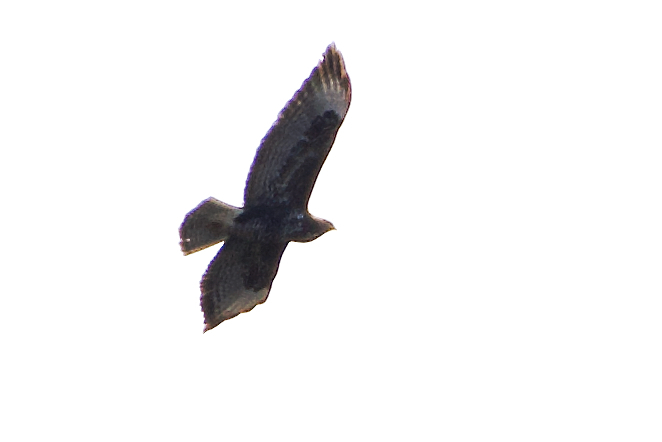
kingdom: Animalia
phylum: Chordata
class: Aves
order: Accipitriformes
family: Accipitridae
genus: Buteo
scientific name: Buteo buteo
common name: Common buzzard
